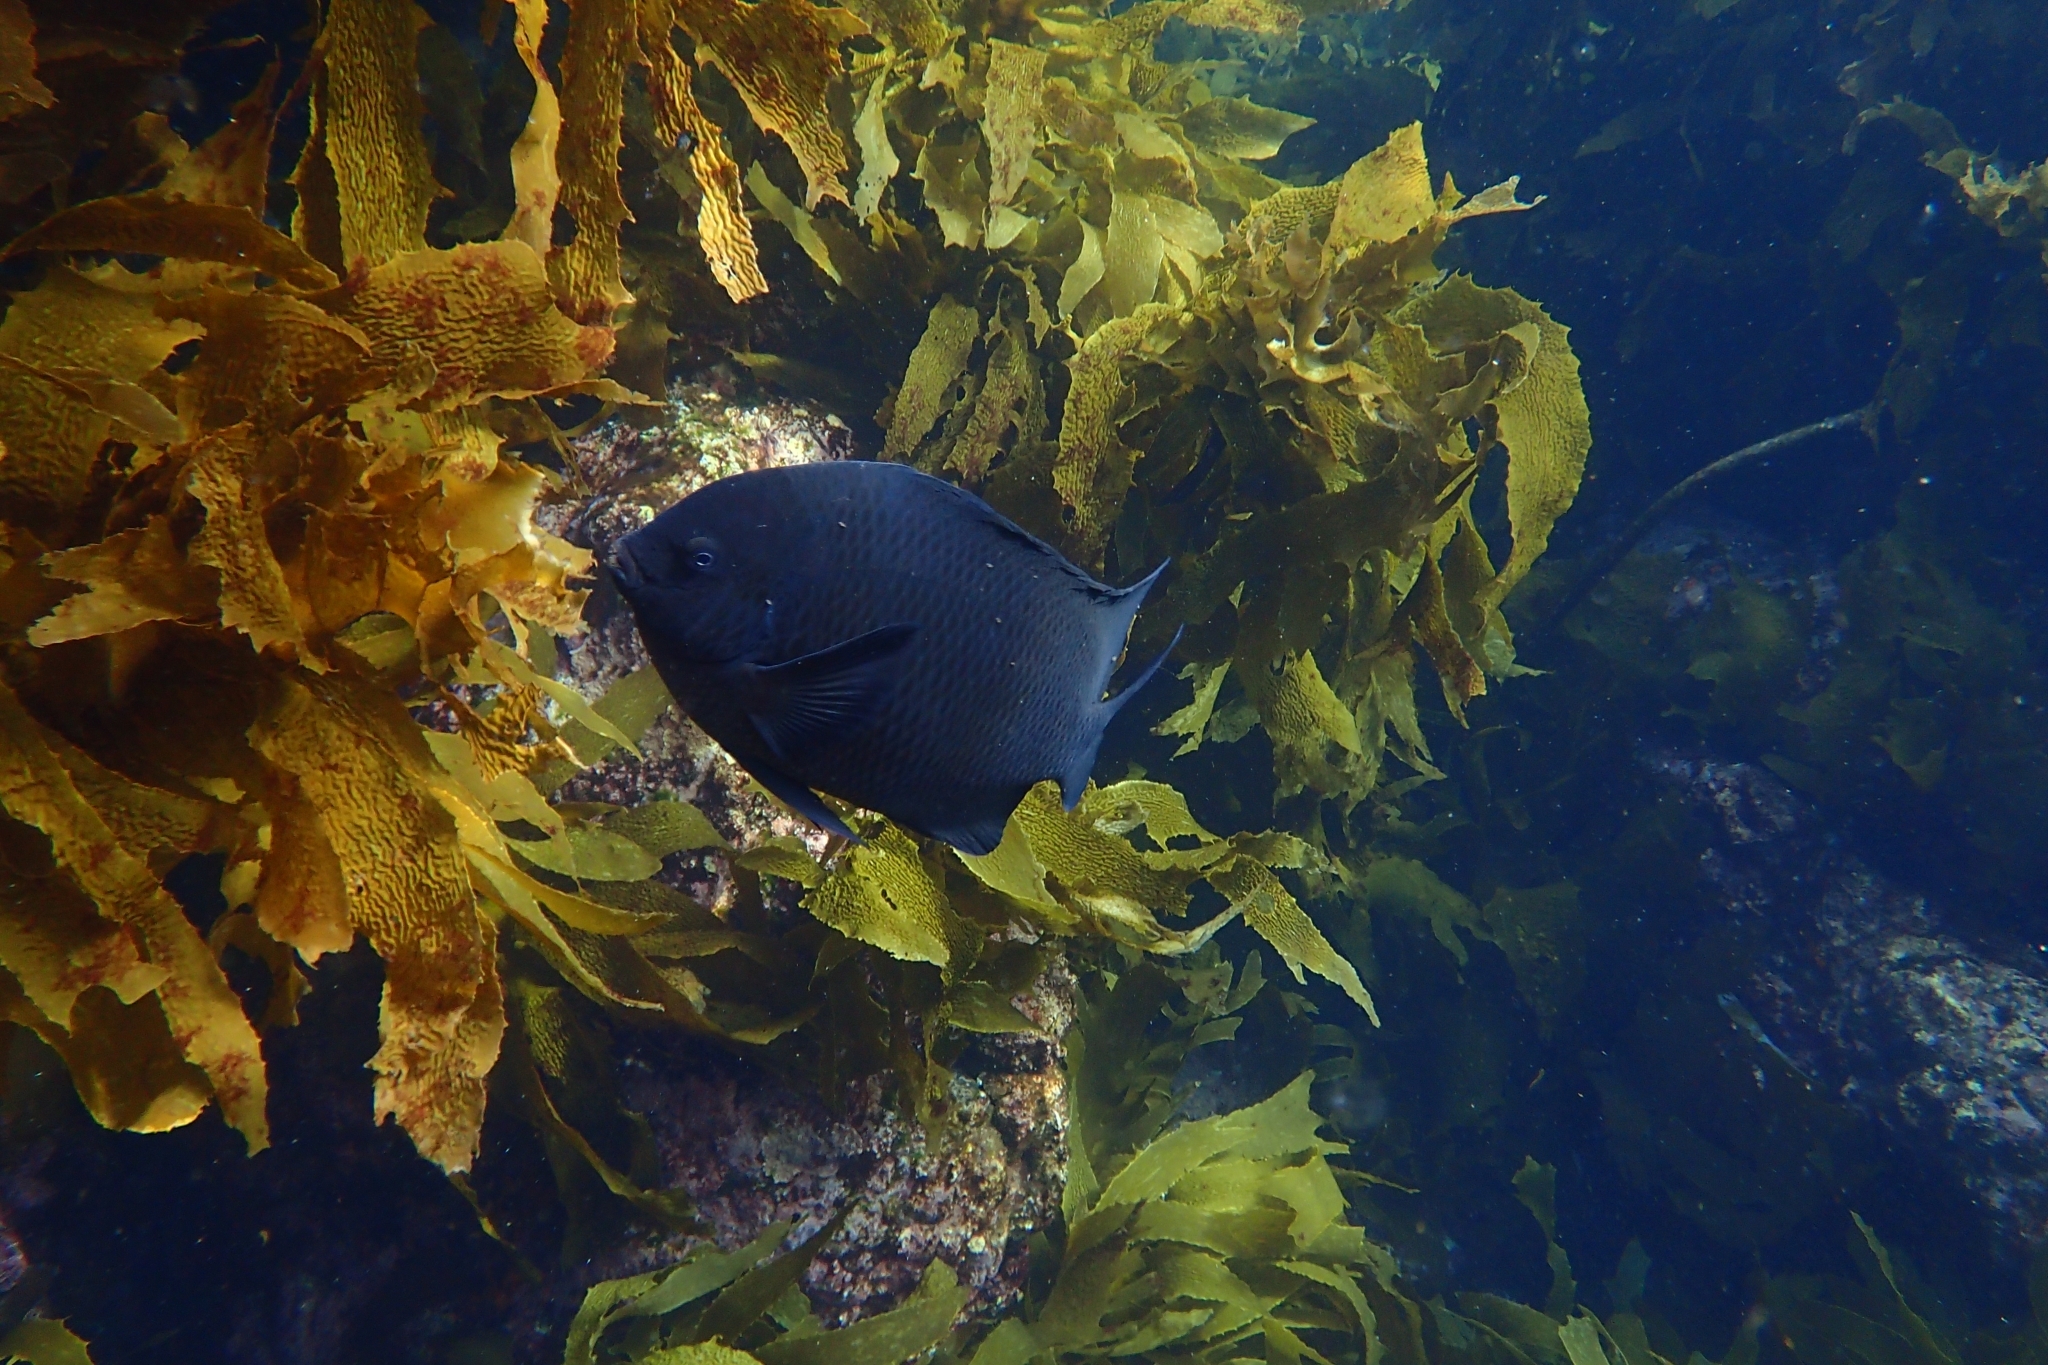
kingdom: Animalia
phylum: Chordata
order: Perciformes
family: Pomacentridae
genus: Parma
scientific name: Parma alboscapularis
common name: Black angelfish
